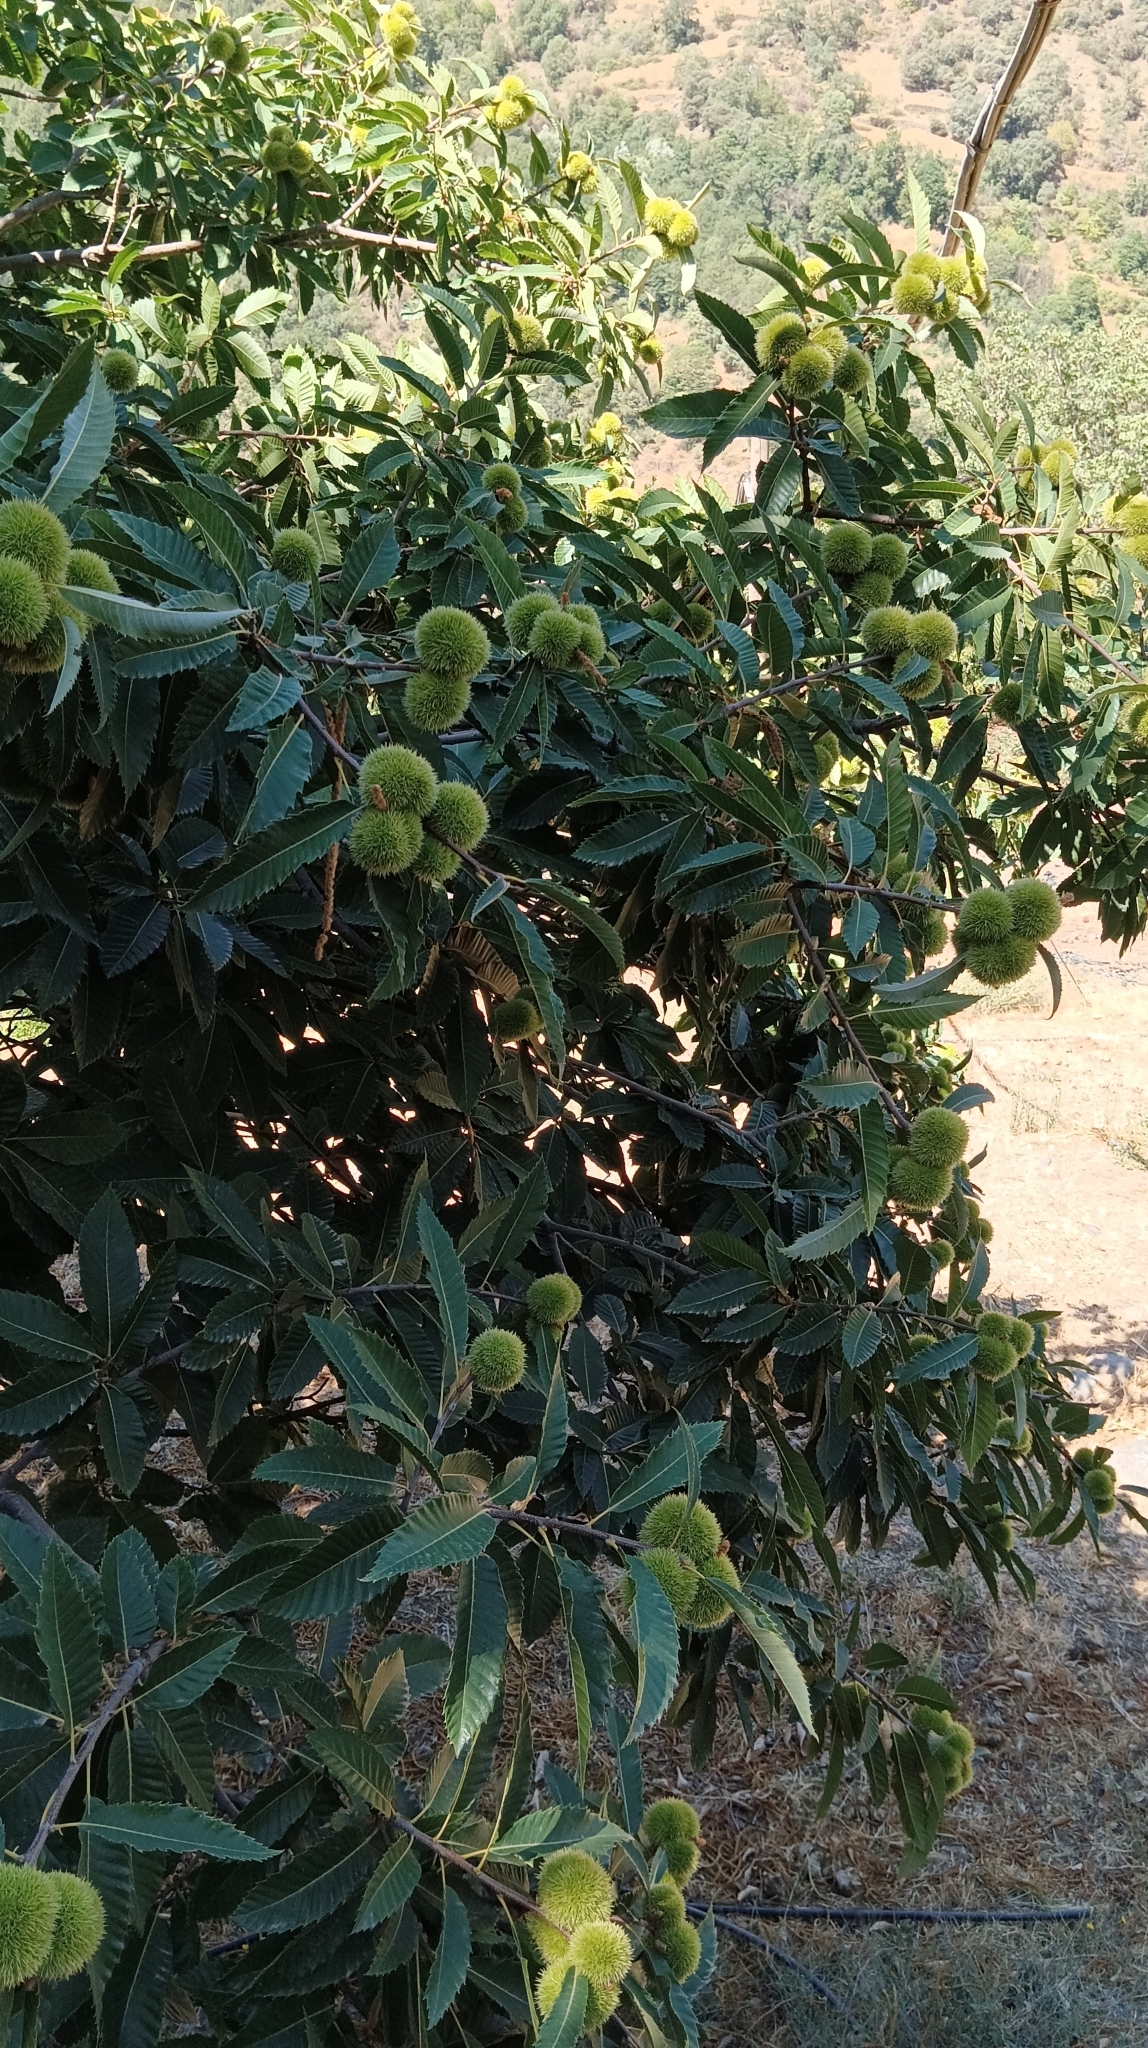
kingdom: Plantae
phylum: Tracheophyta
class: Magnoliopsida
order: Fagales
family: Fagaceae
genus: Castanea
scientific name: Castanea sativa
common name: Sweet chestnut
